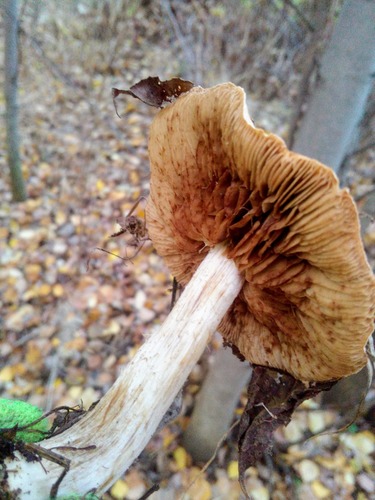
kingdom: Fungi
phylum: Basidiomycota
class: Agaricomycetes
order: Agaricales
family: Cortinariaceae
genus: Phlegmacium
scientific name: Phlegmacium argutum
